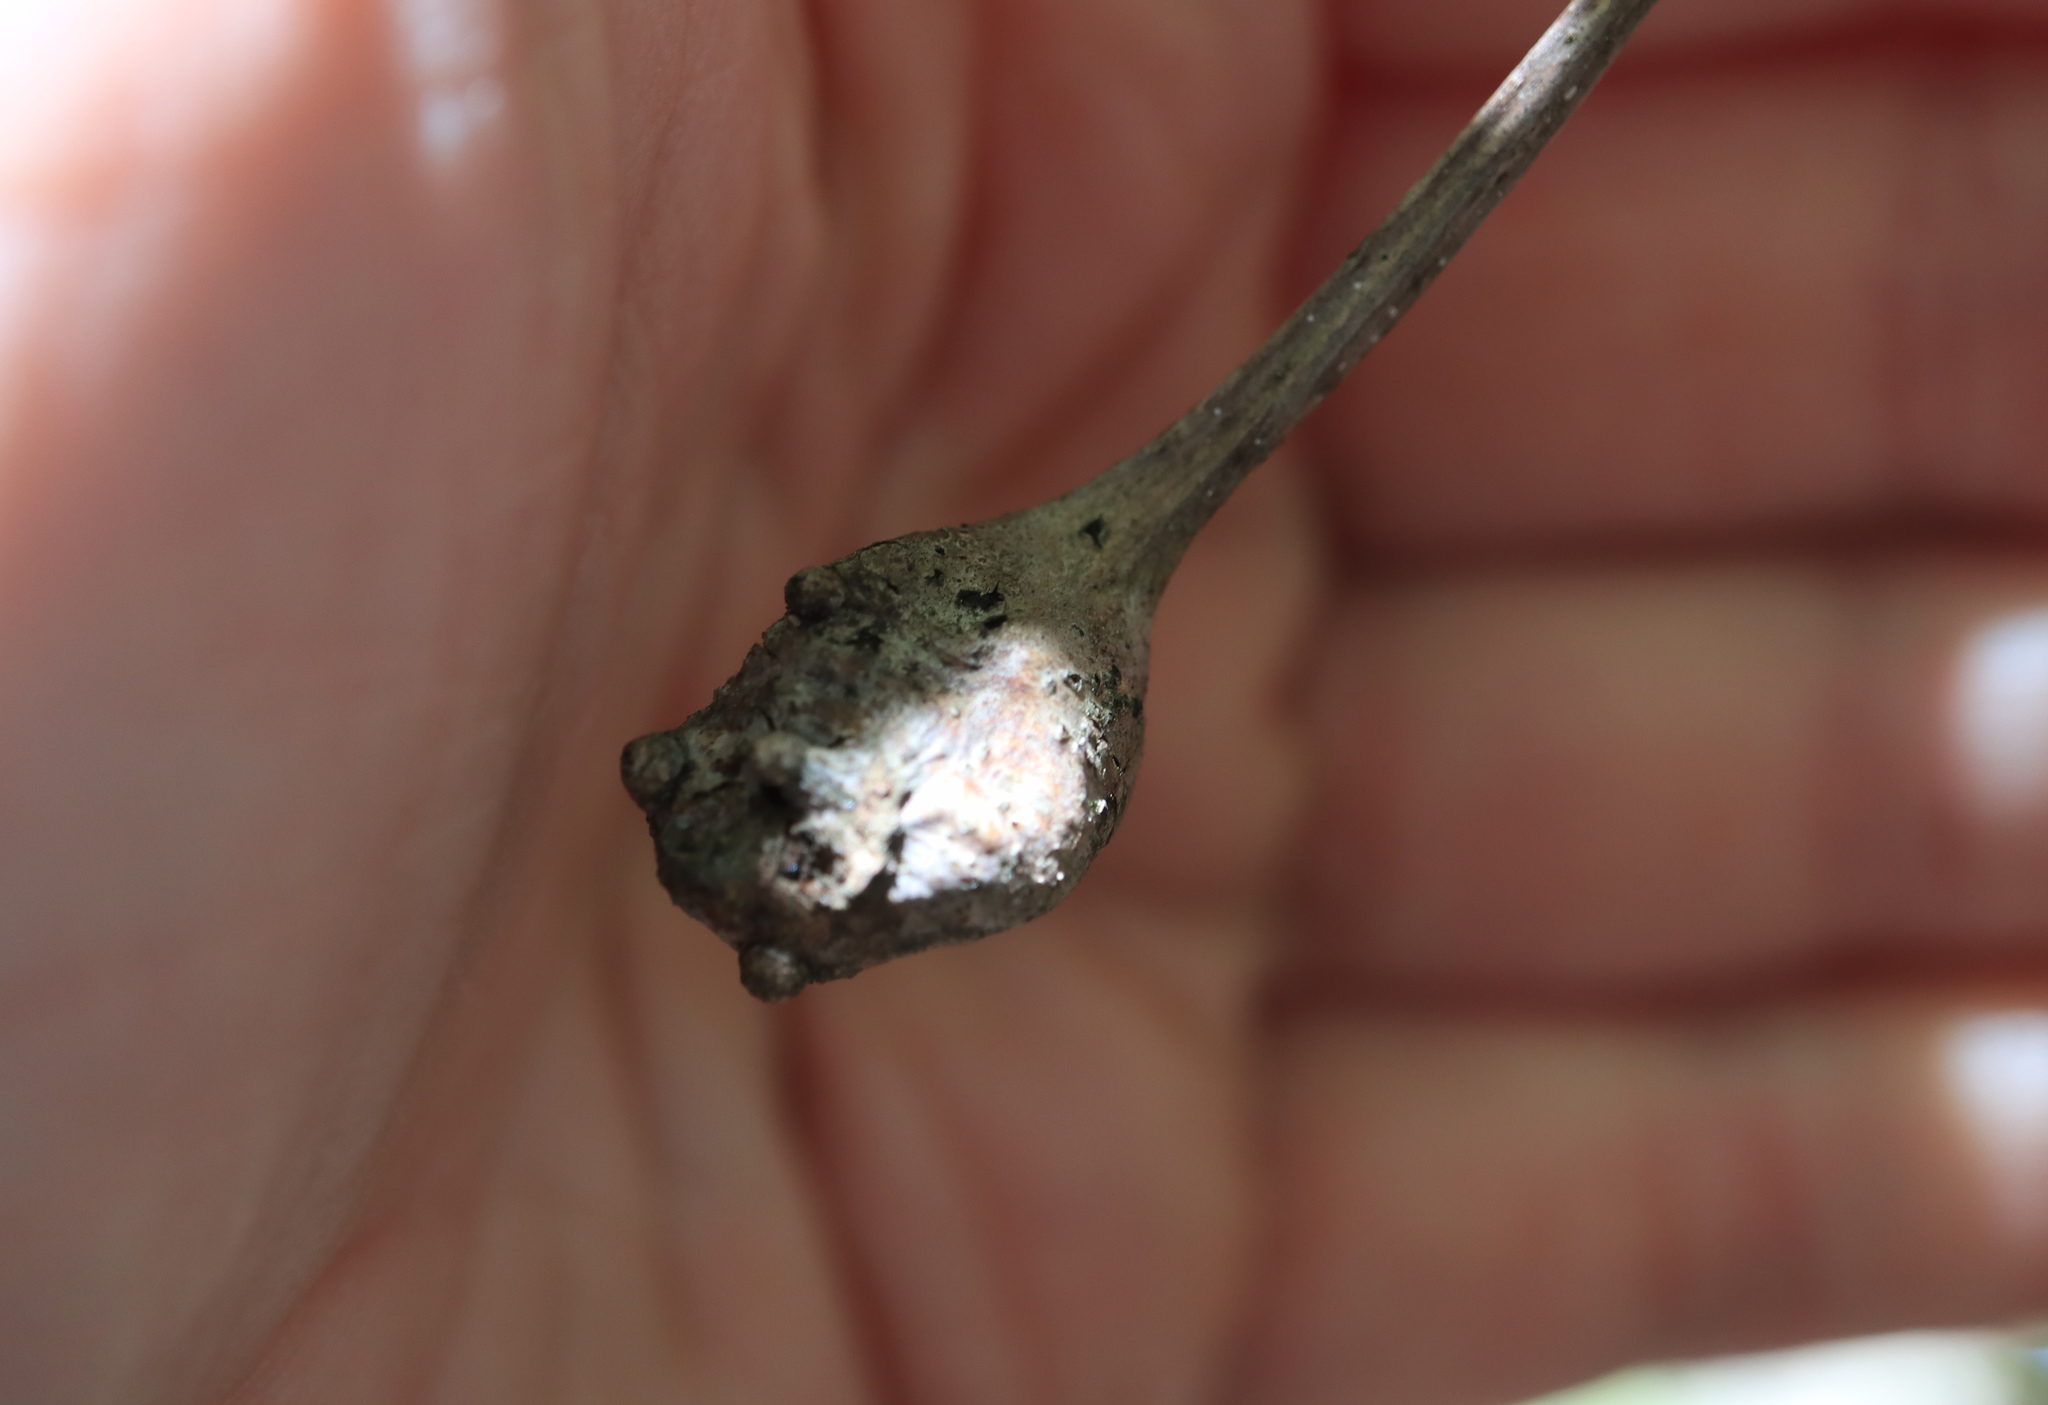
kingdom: Animalia
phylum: Arthropoda
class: Insecta
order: Hymenoptera
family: Cynipidae
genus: Callirhytis
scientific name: Callirhytis clavula
